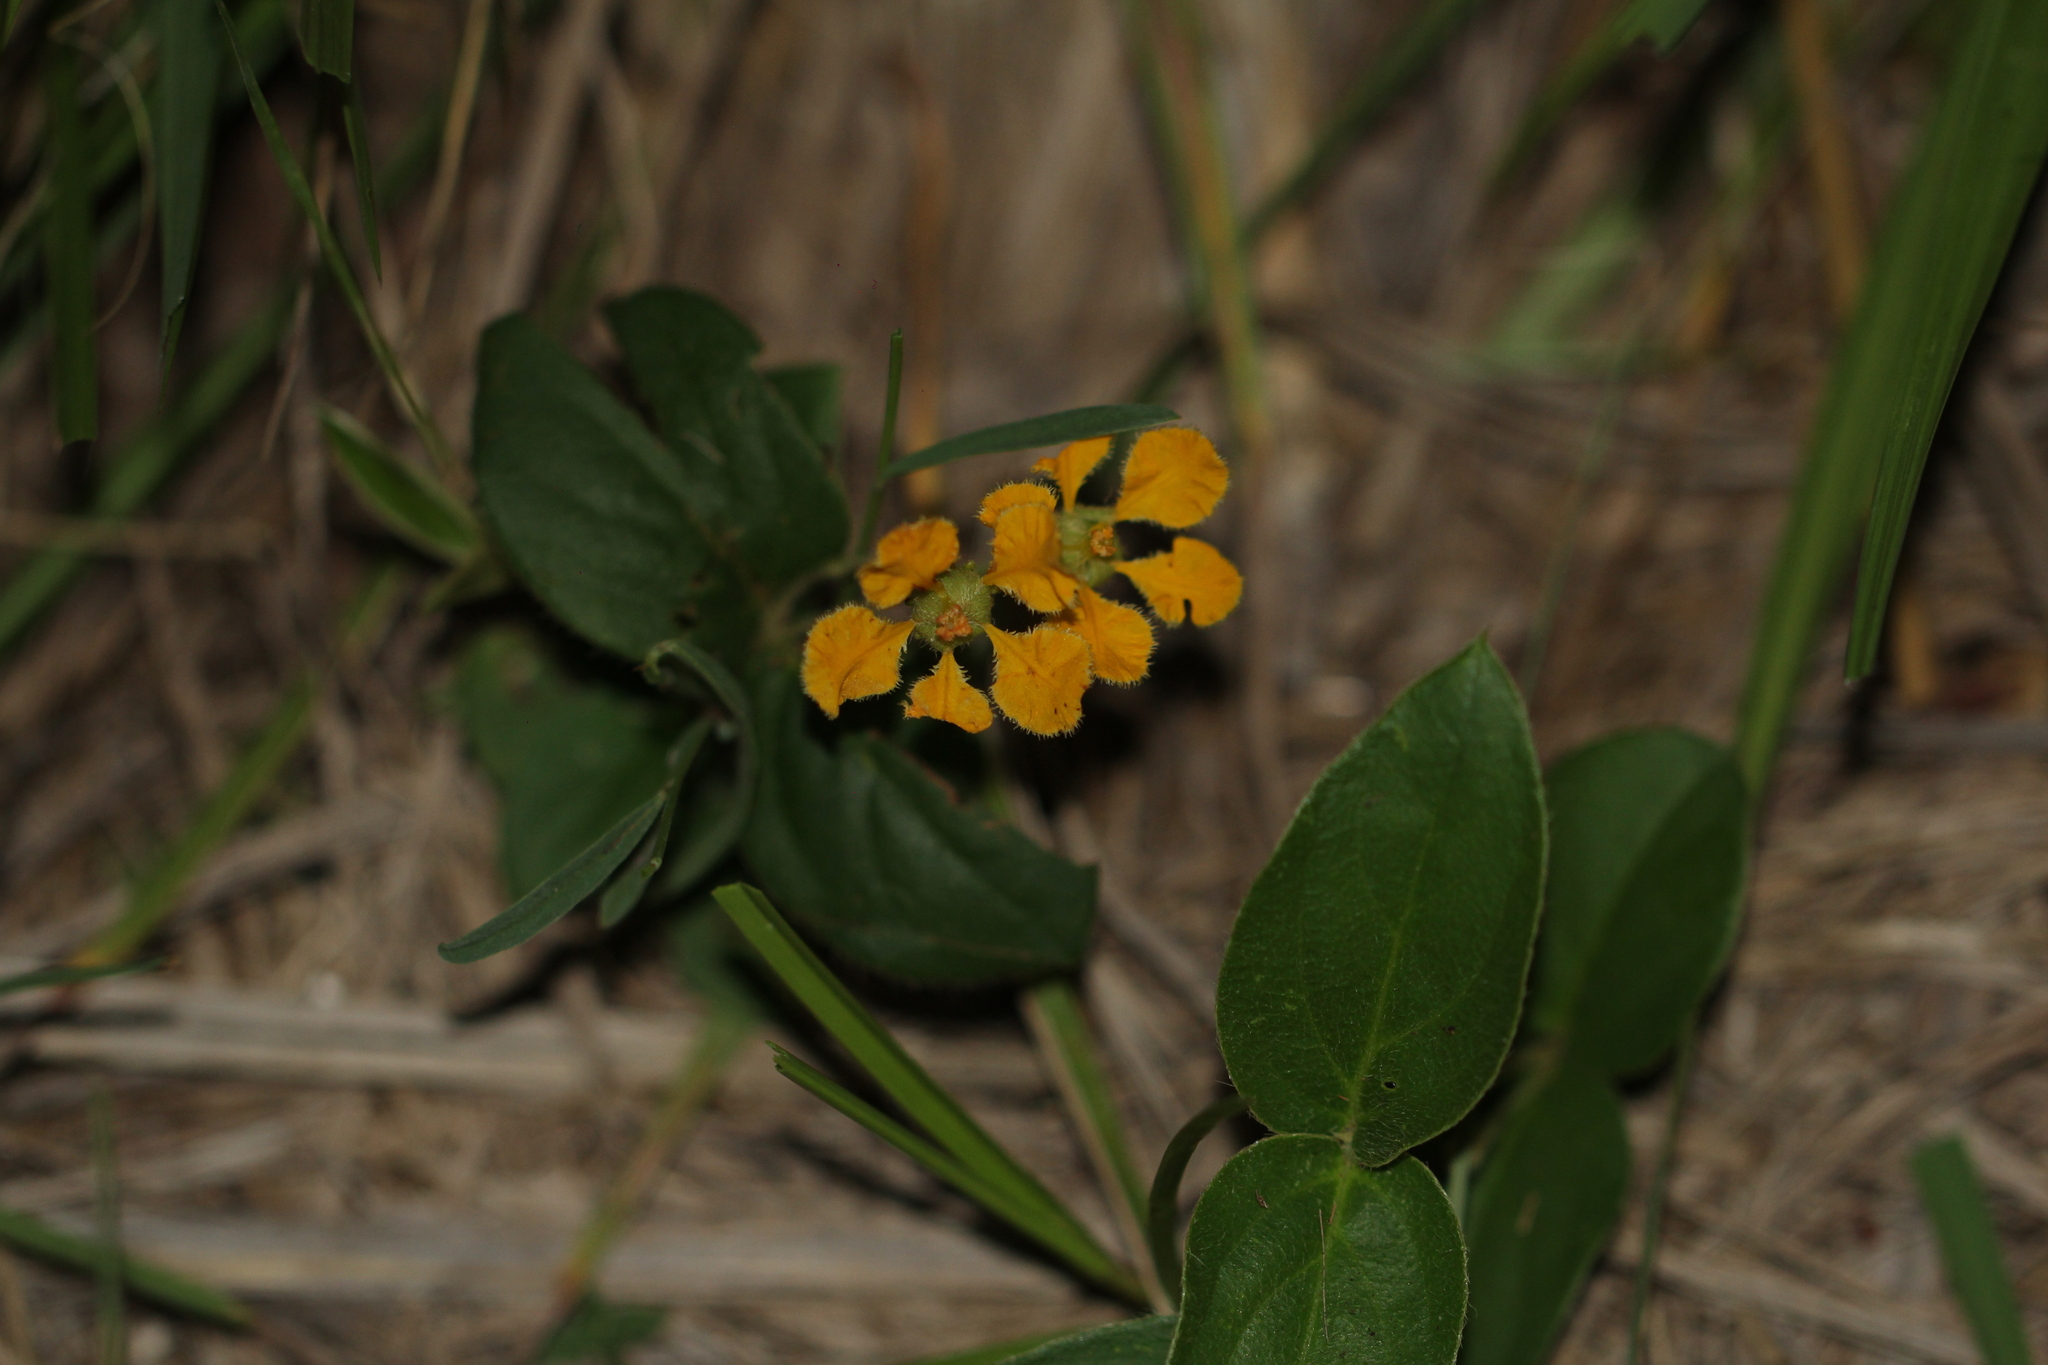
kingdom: Plantae
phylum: Tracheophyta
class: Magnoliopsida
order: Malpighiales
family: Malpighiaceae
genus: Aspicarpa
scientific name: Aspicarpa pulchella
